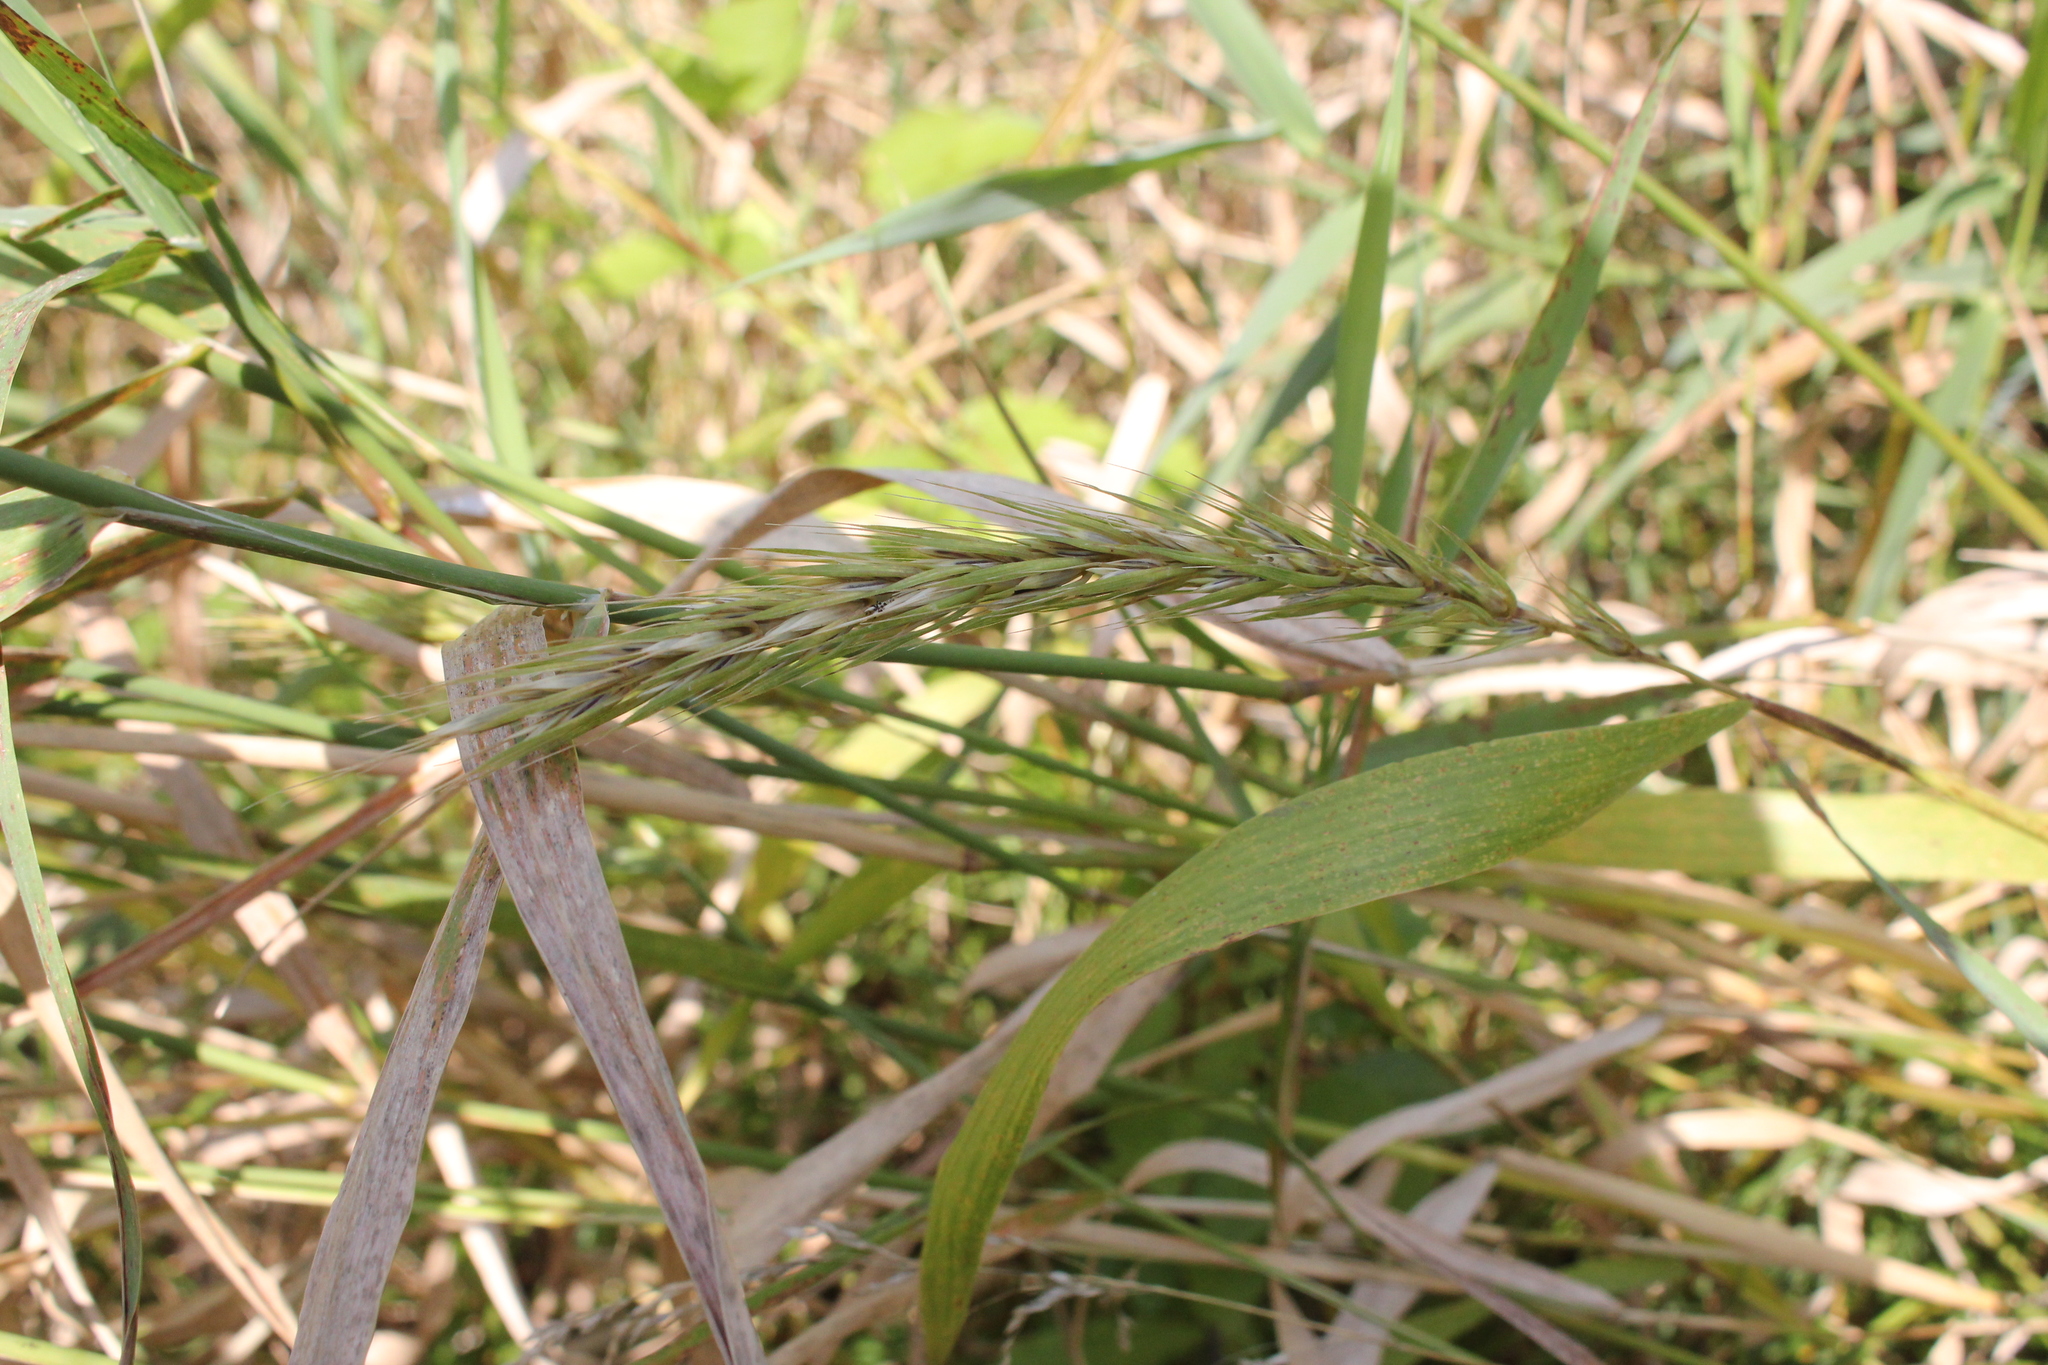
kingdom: Plantae
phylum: Tracheophyta
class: Liliopsida
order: Poales
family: Poaceae
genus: Elymus
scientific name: Elymus virginicus
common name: Common eastern wildrye
